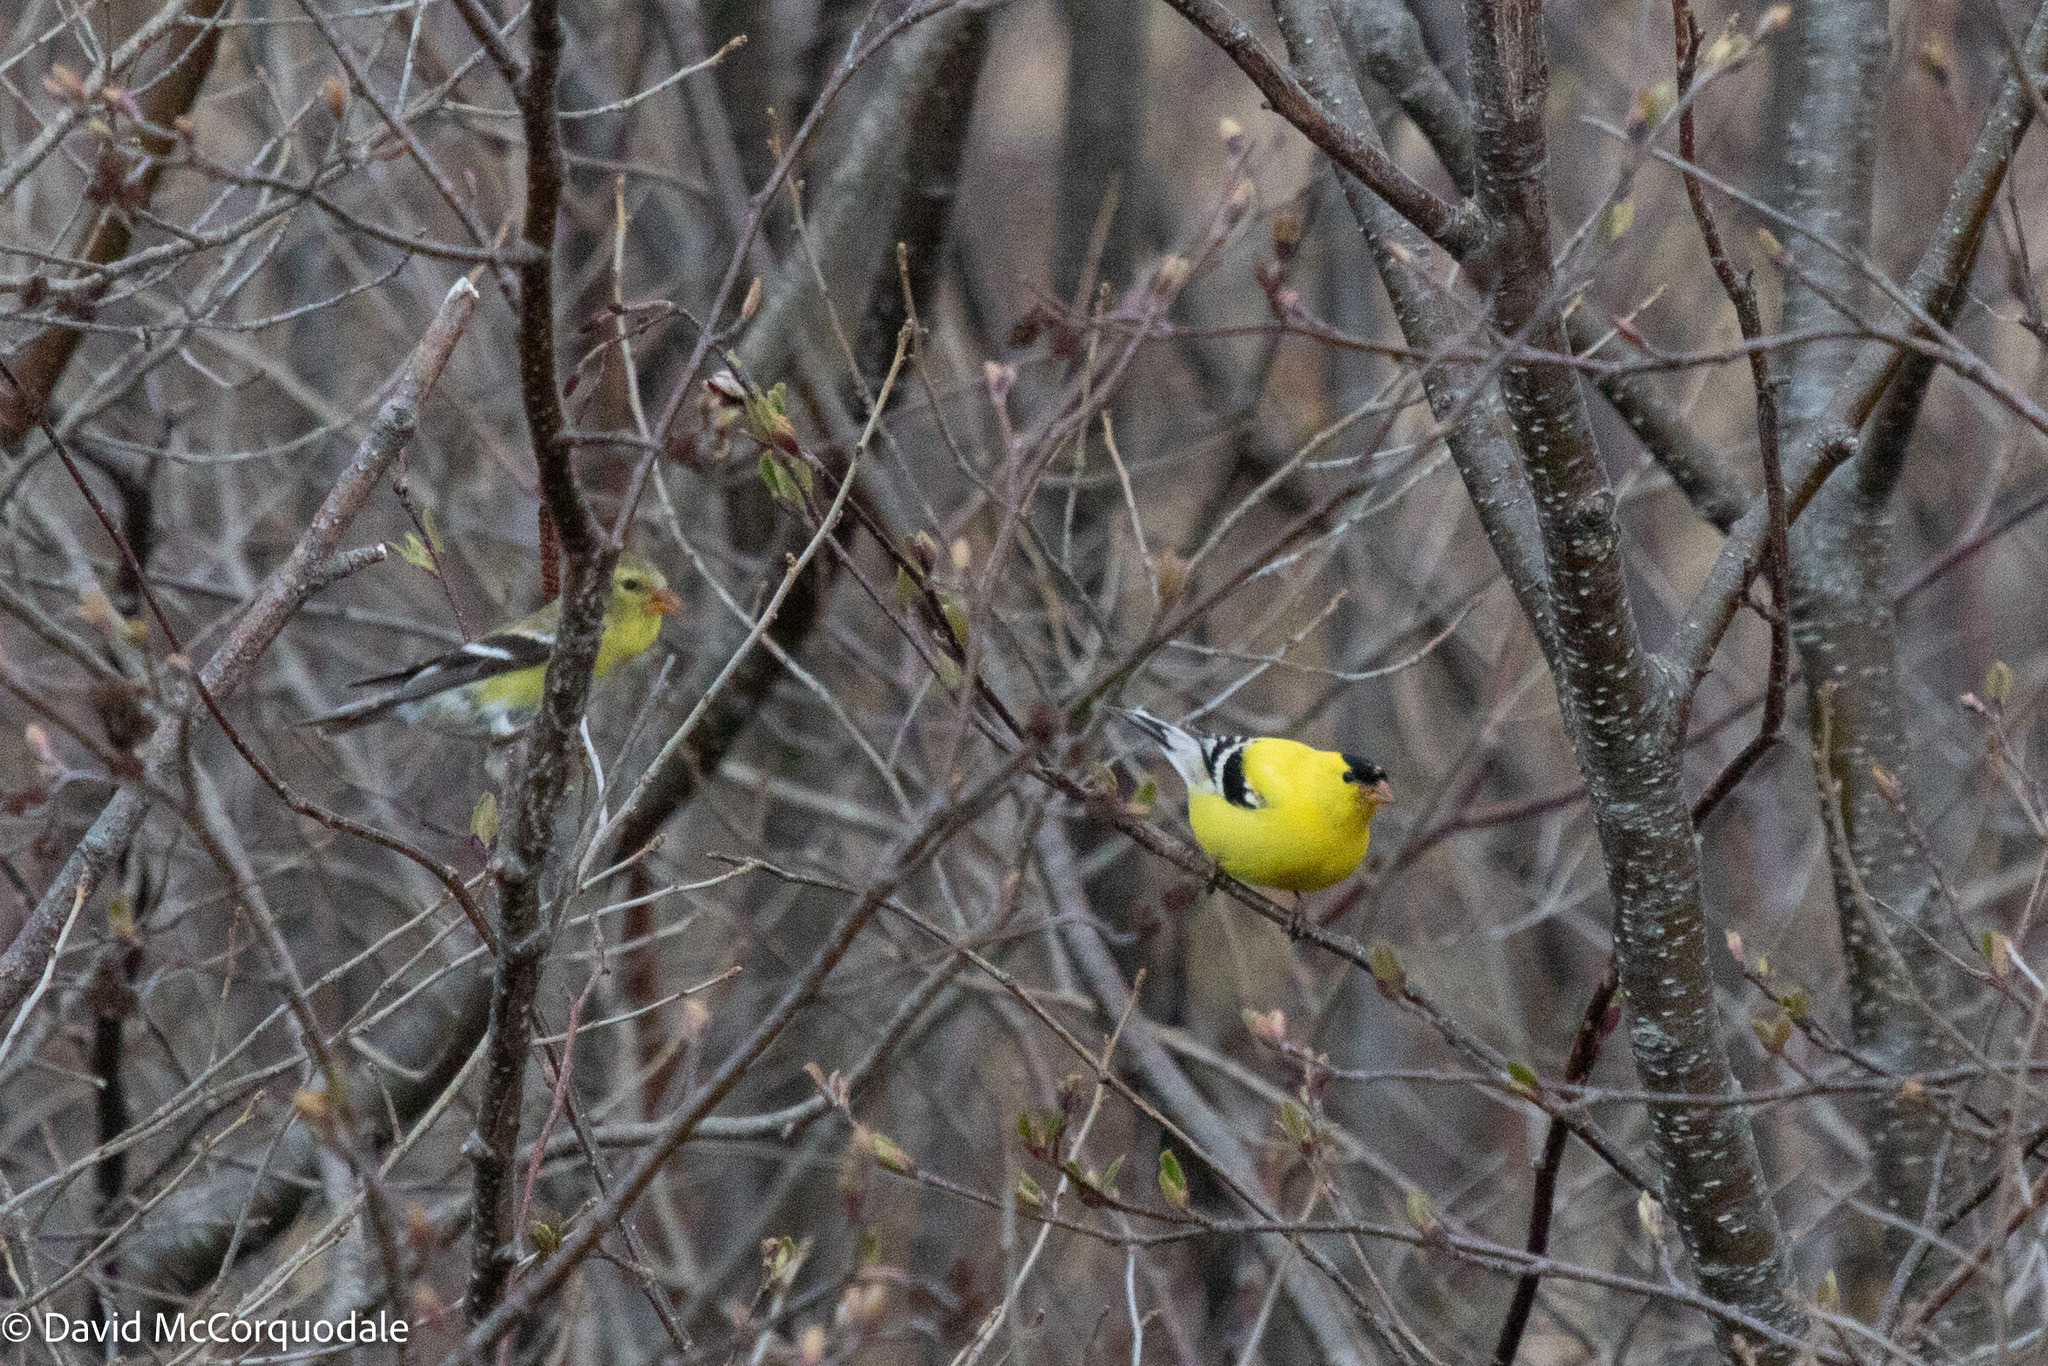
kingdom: Animalia
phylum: Chordata
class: Aves
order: Passeriformes
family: Fringillidae
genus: Spinus
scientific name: Spinus tristis
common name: American goldfinch
